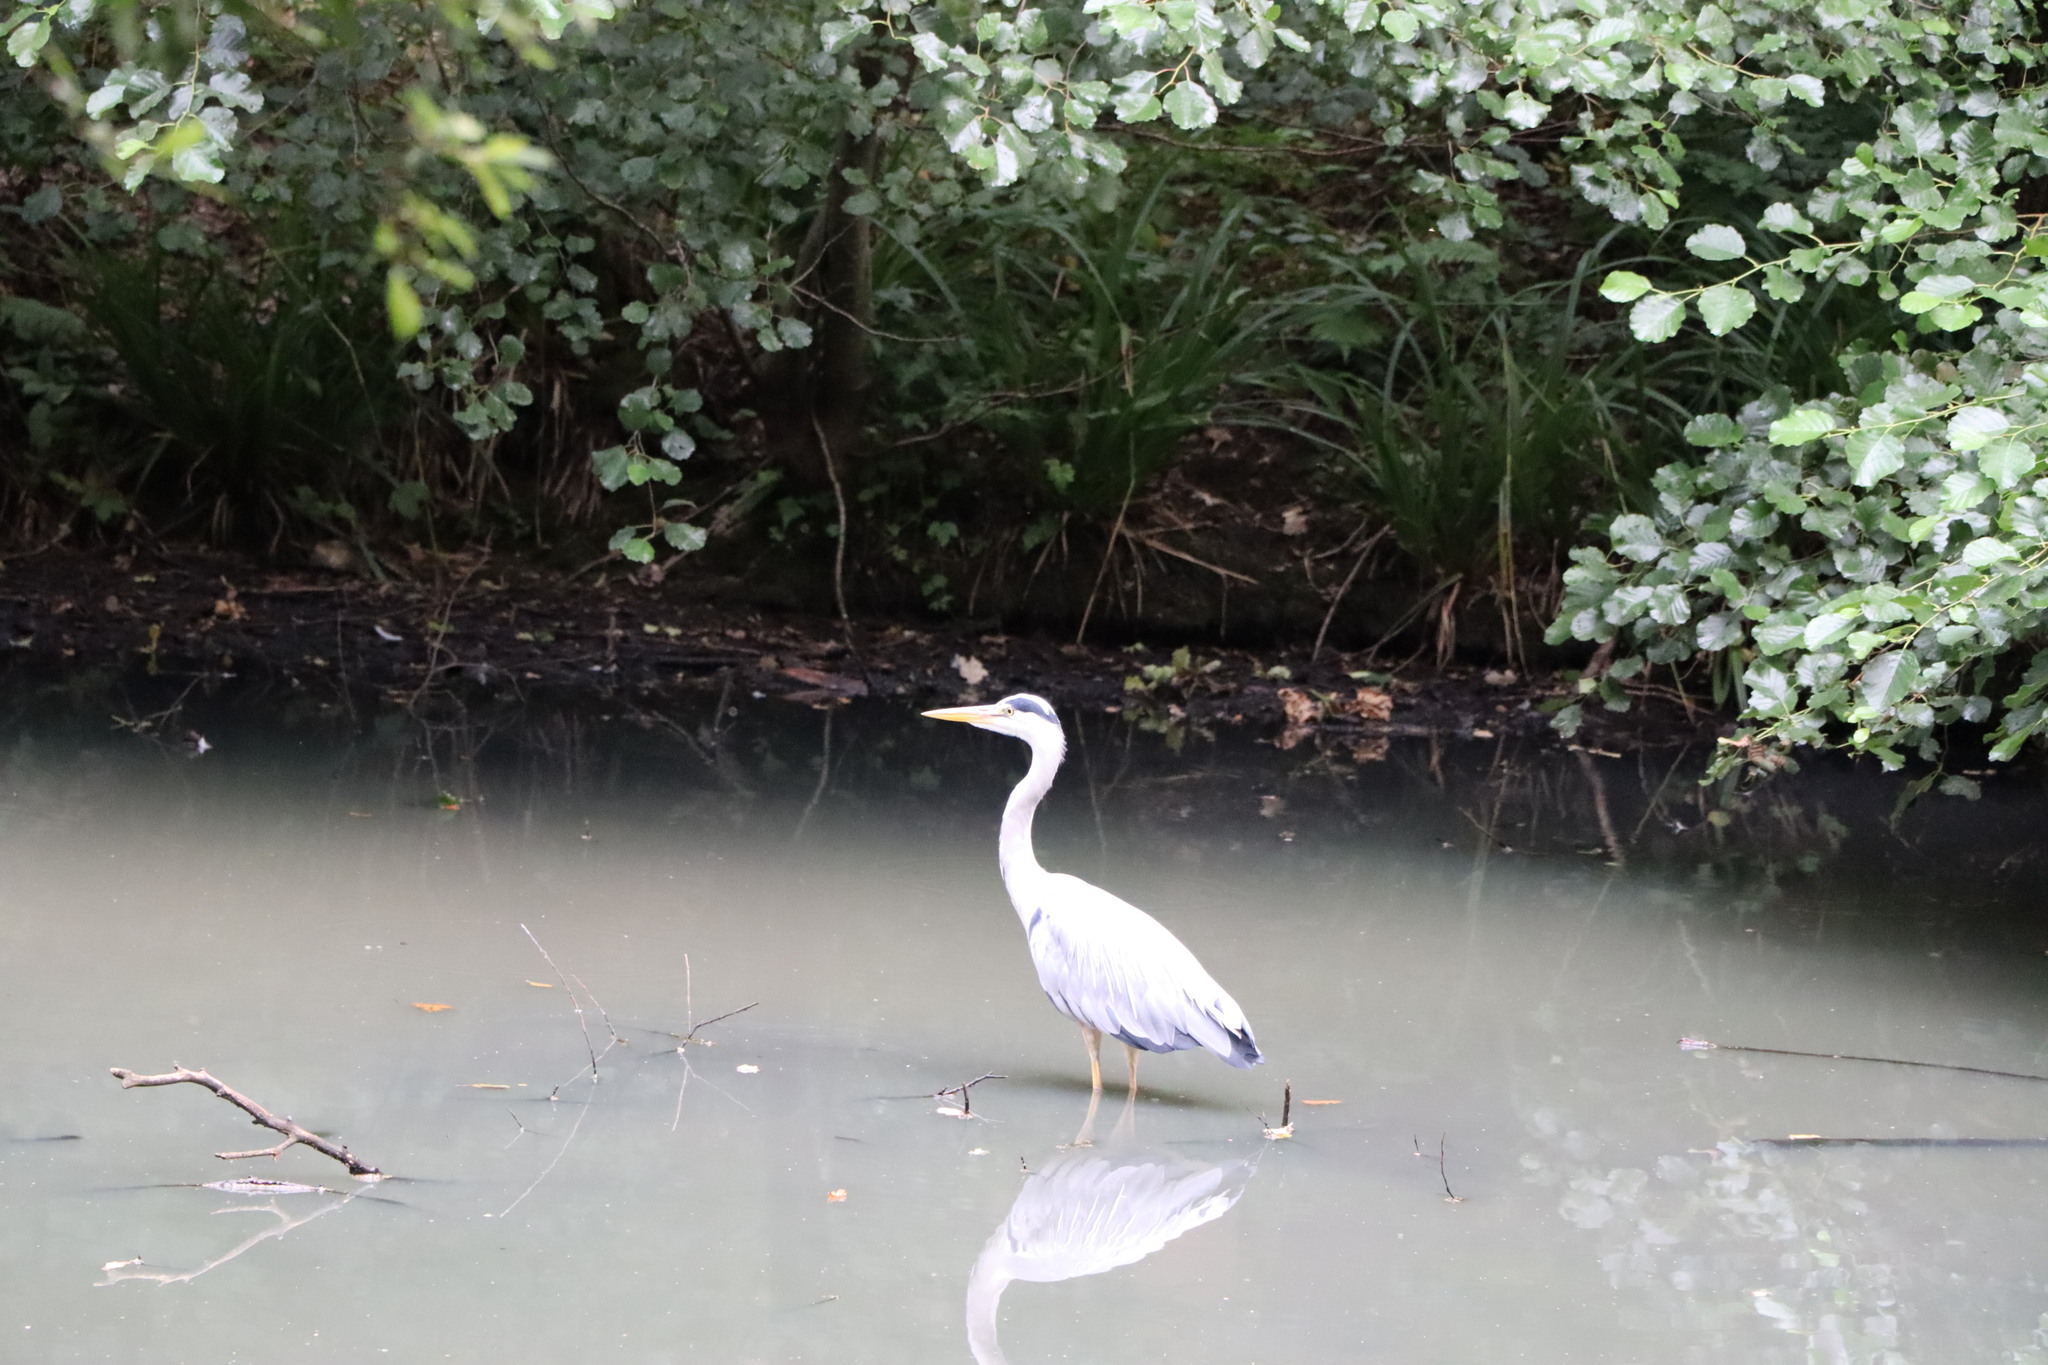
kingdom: Animalia
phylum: Chordata
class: Aves
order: Pelecaniformes
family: Ardeidae
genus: Ardea
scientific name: Ardea cinerea
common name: Grey heron
